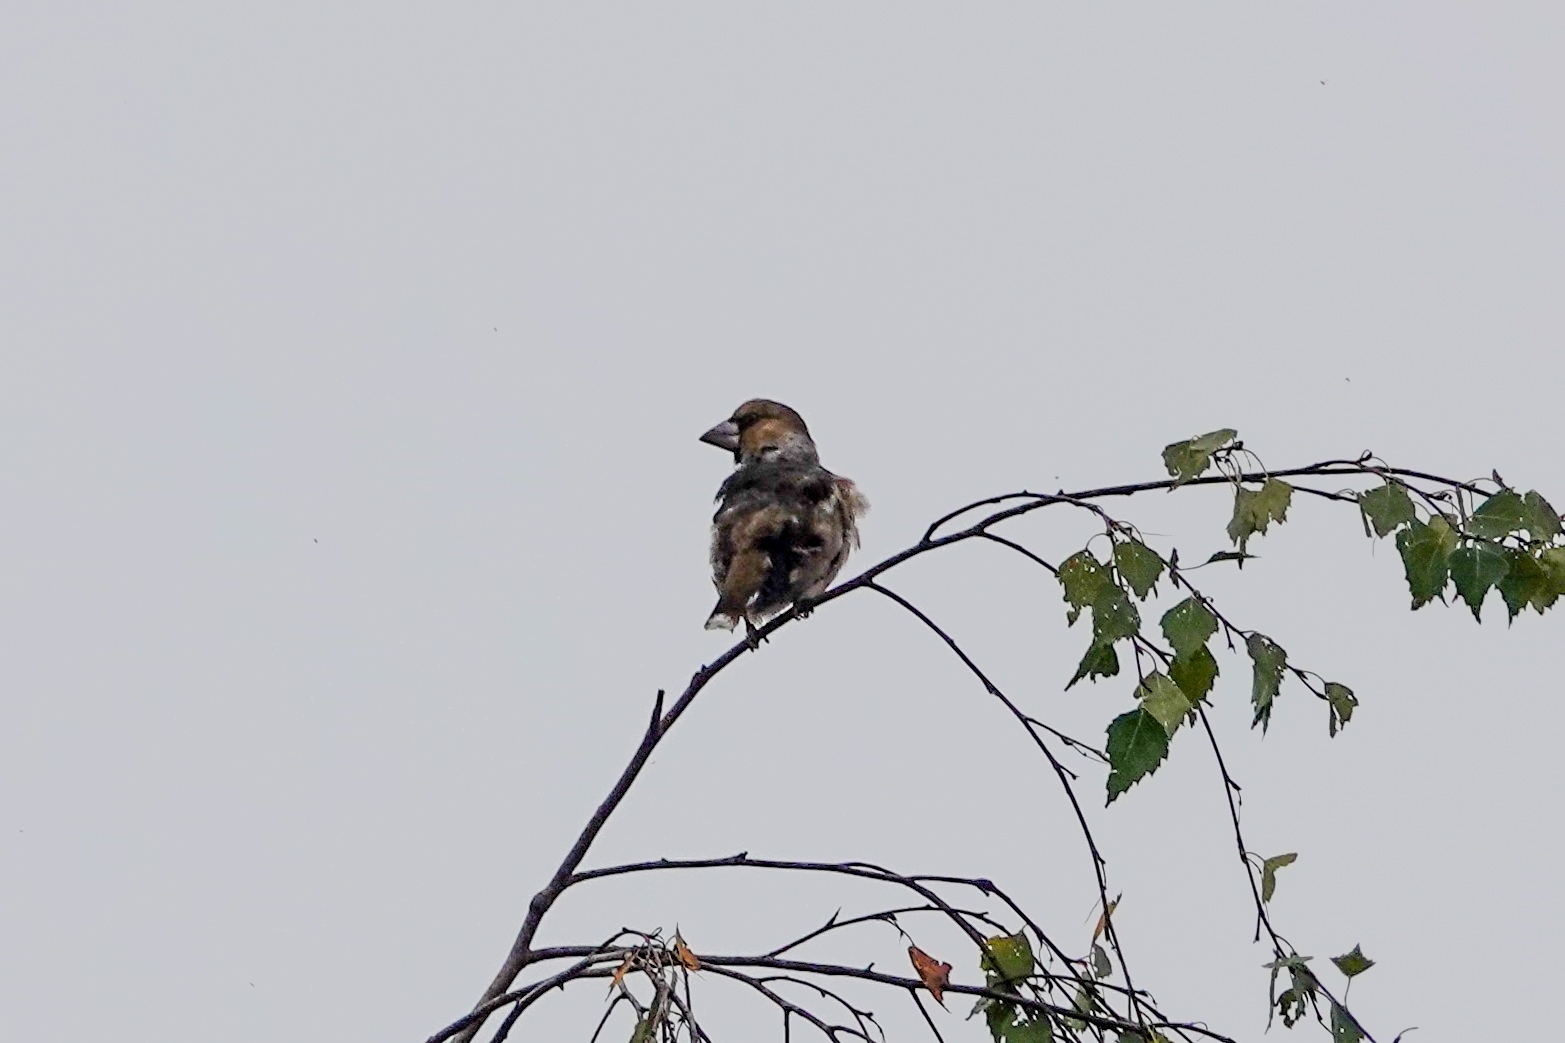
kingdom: Animalia
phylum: Chordata
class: Aves
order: Passeriformes
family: Fringillidae
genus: Coccothraustes
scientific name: Coccothraustes coccothraustes
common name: Hawfinch
